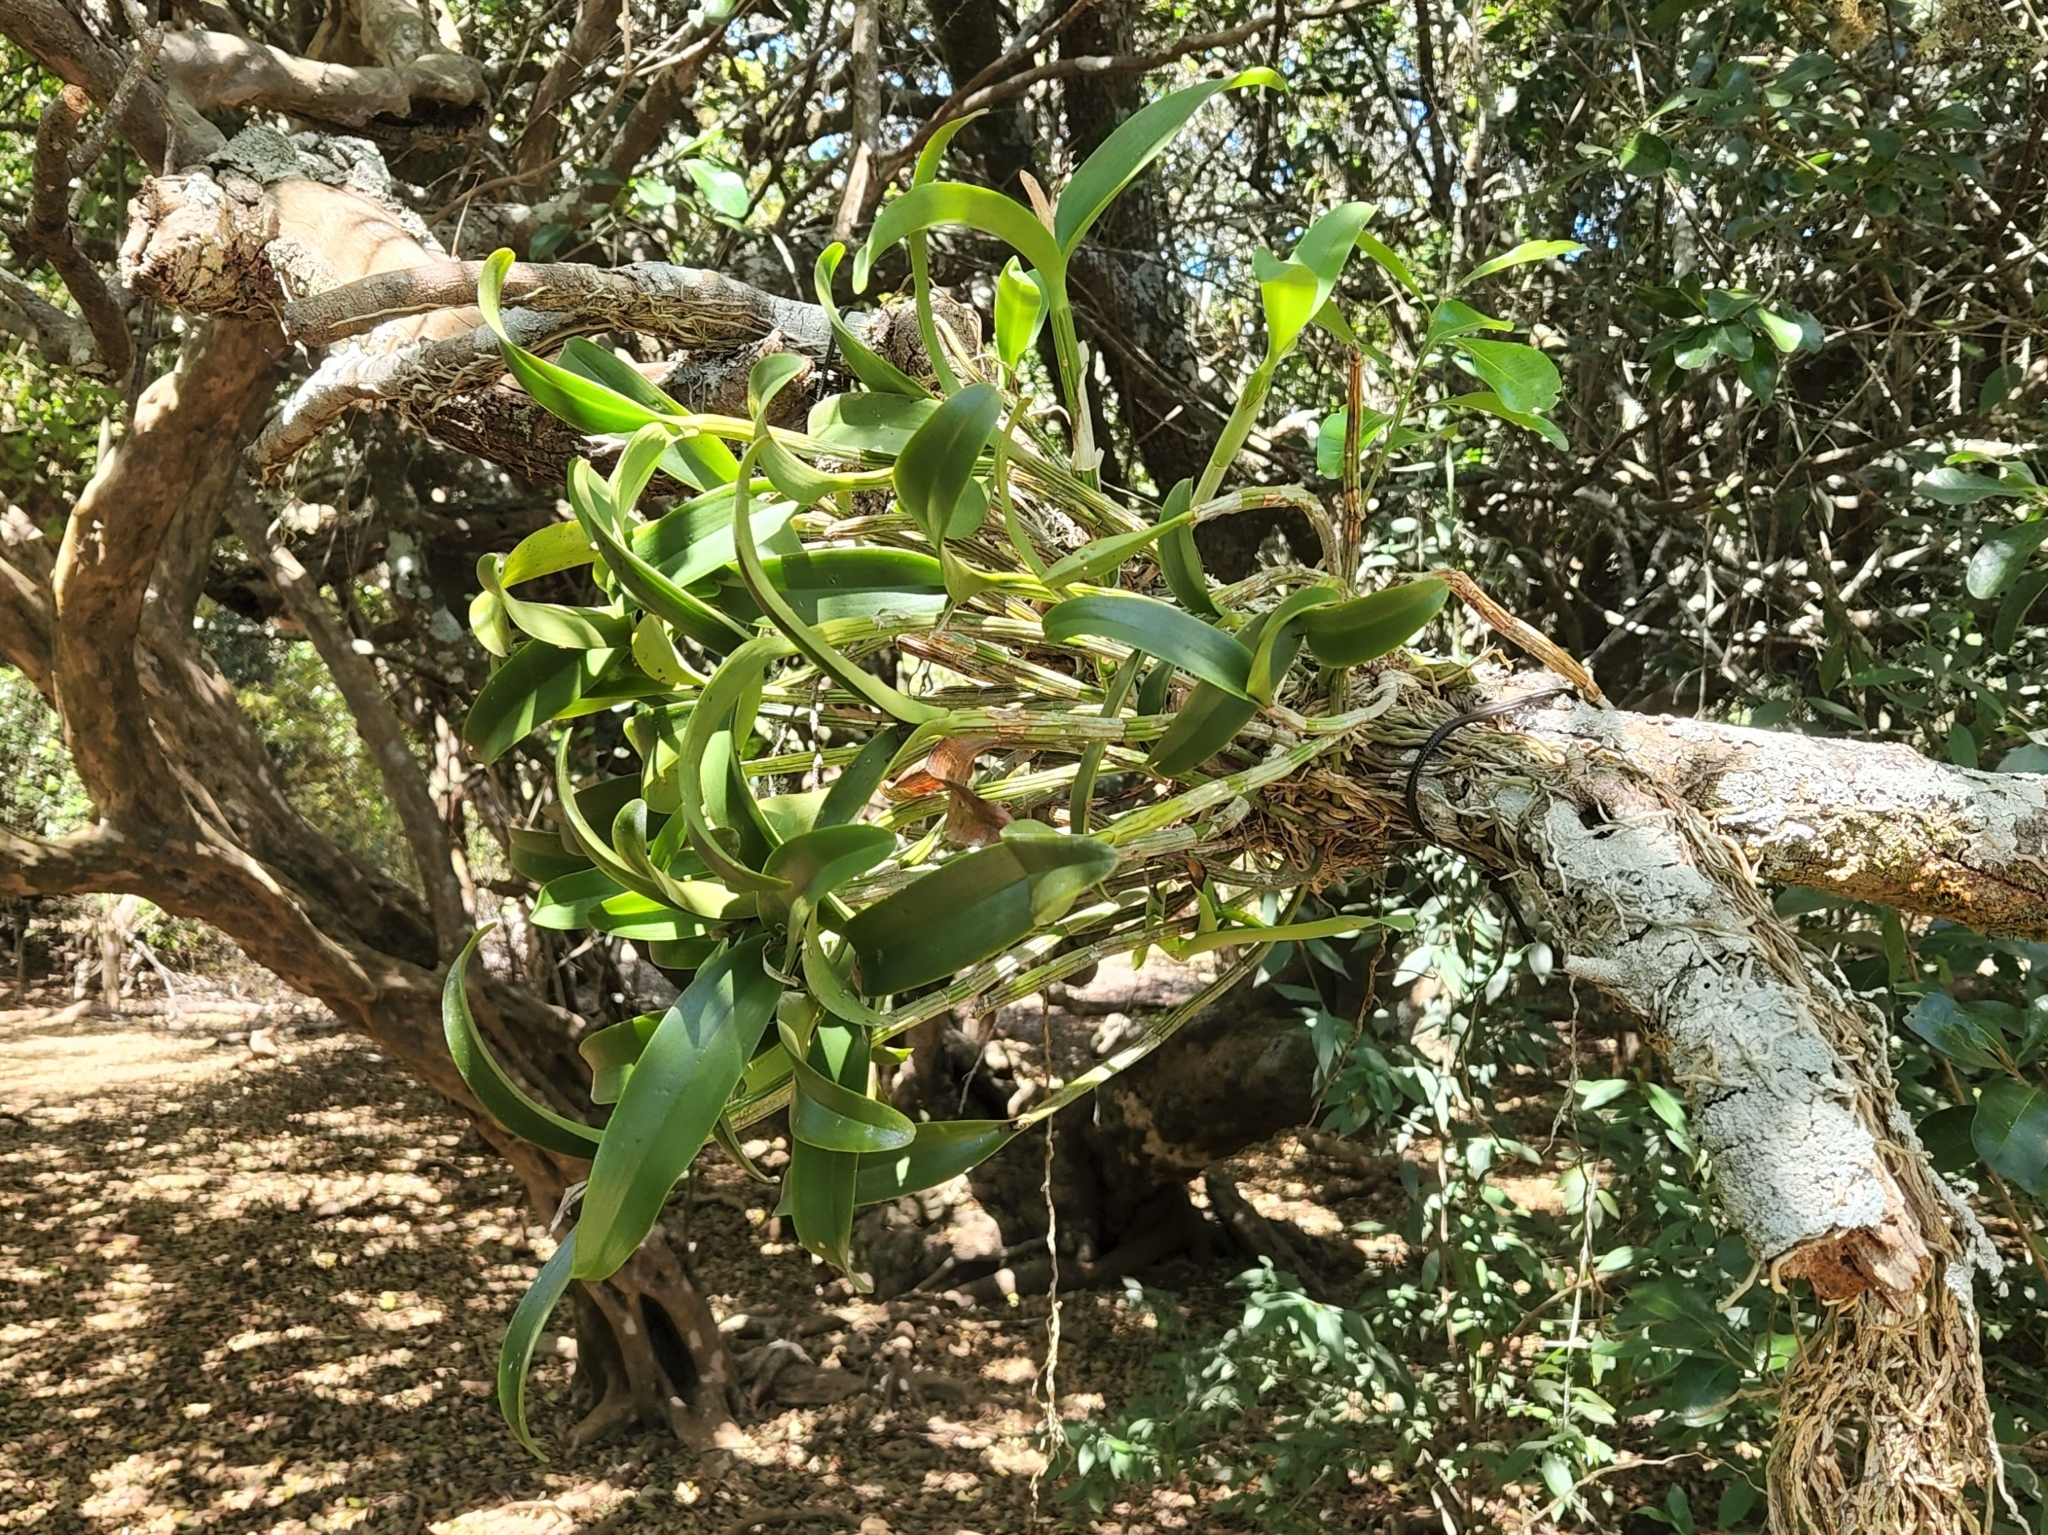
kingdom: Plantae
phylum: Tracheophyta
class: Liliopsida
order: Asparagales
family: Orchidaceae
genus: Guarianthe
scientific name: Guarianthe aurantiaca
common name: Orange cattleya
